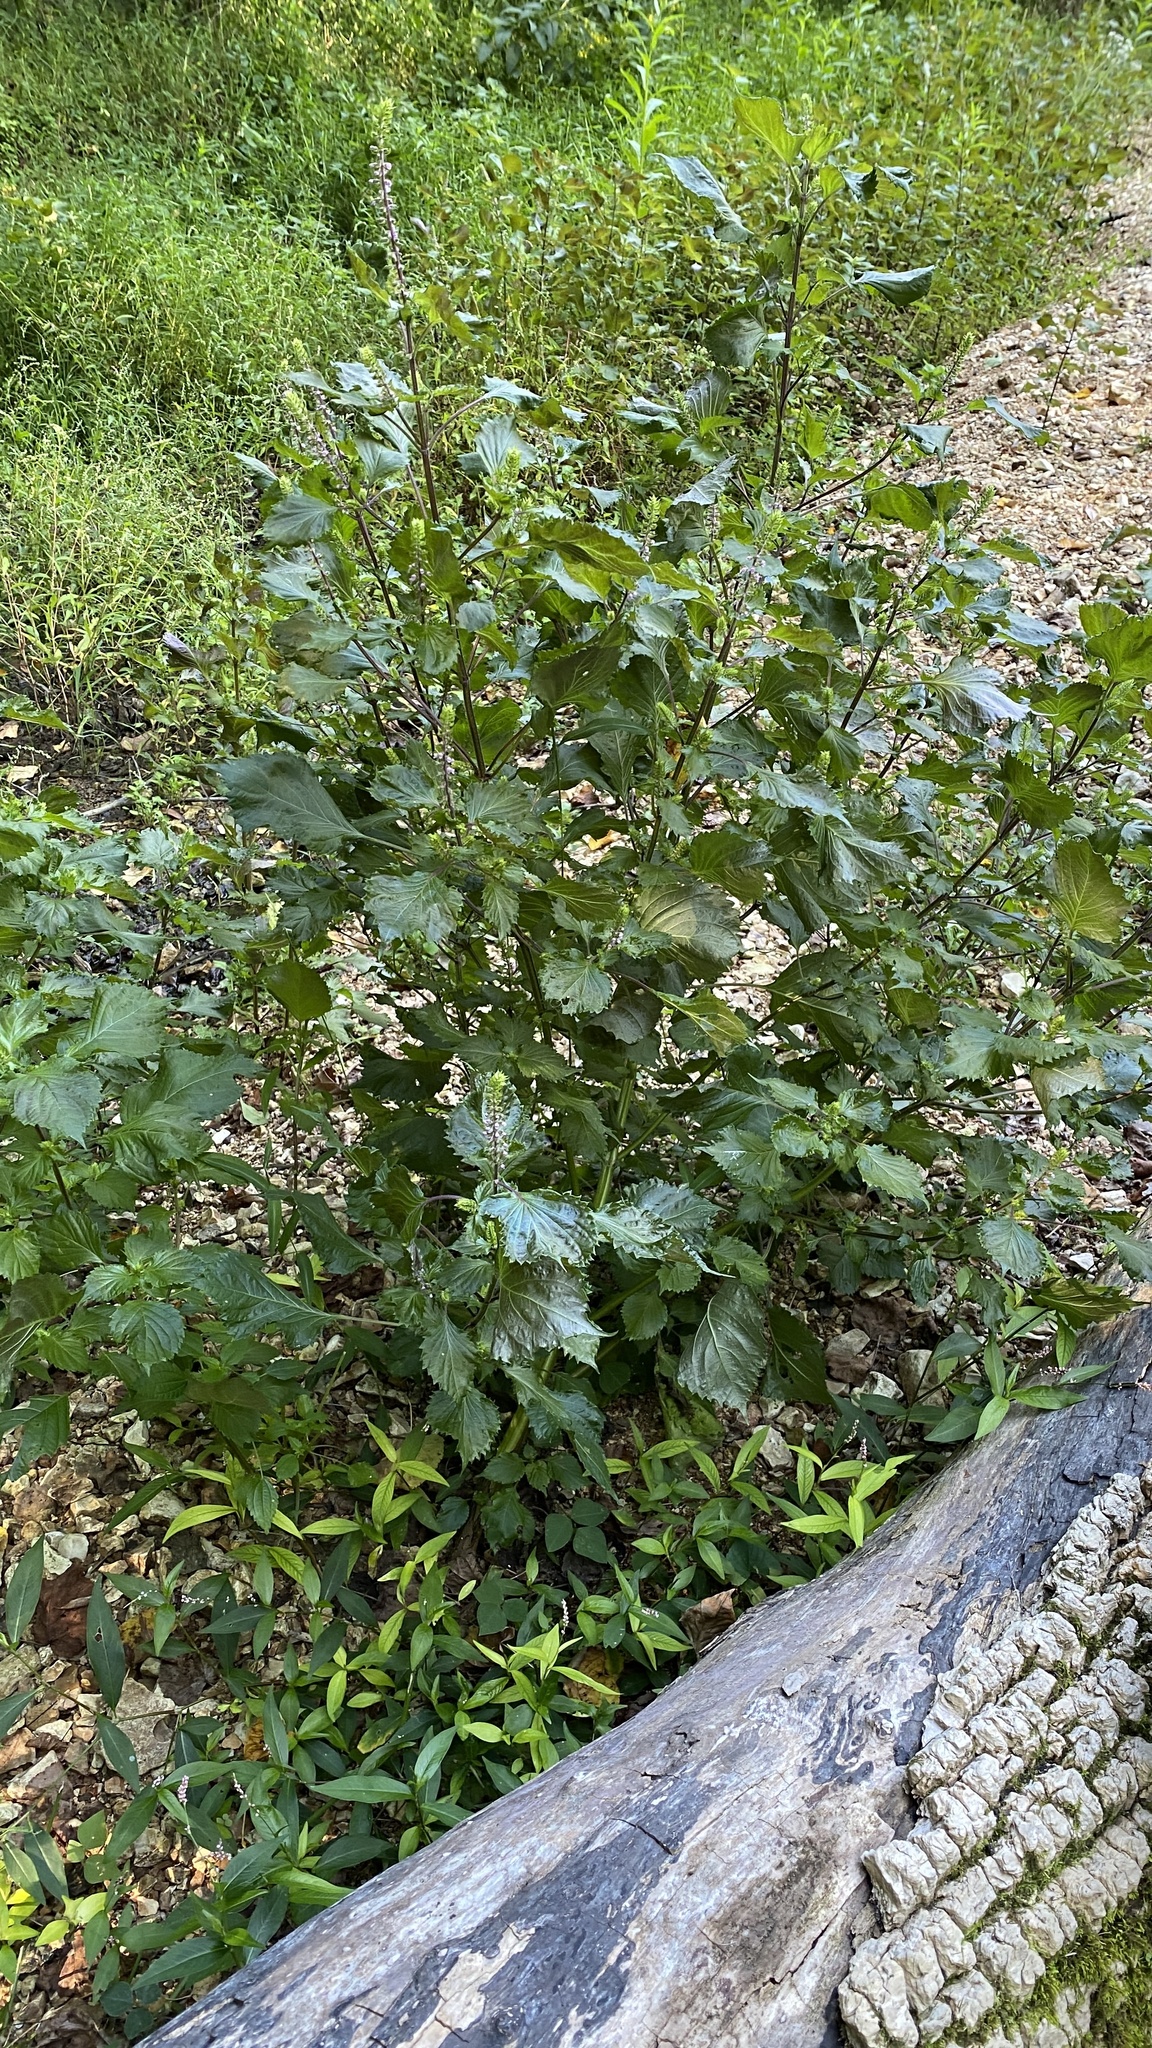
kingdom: Plantae
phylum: Tracheophyta
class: Magnoliopsida
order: Lamiales
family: Lamiaceae
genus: Perilla
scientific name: Perilla frutescens
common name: Perilla
